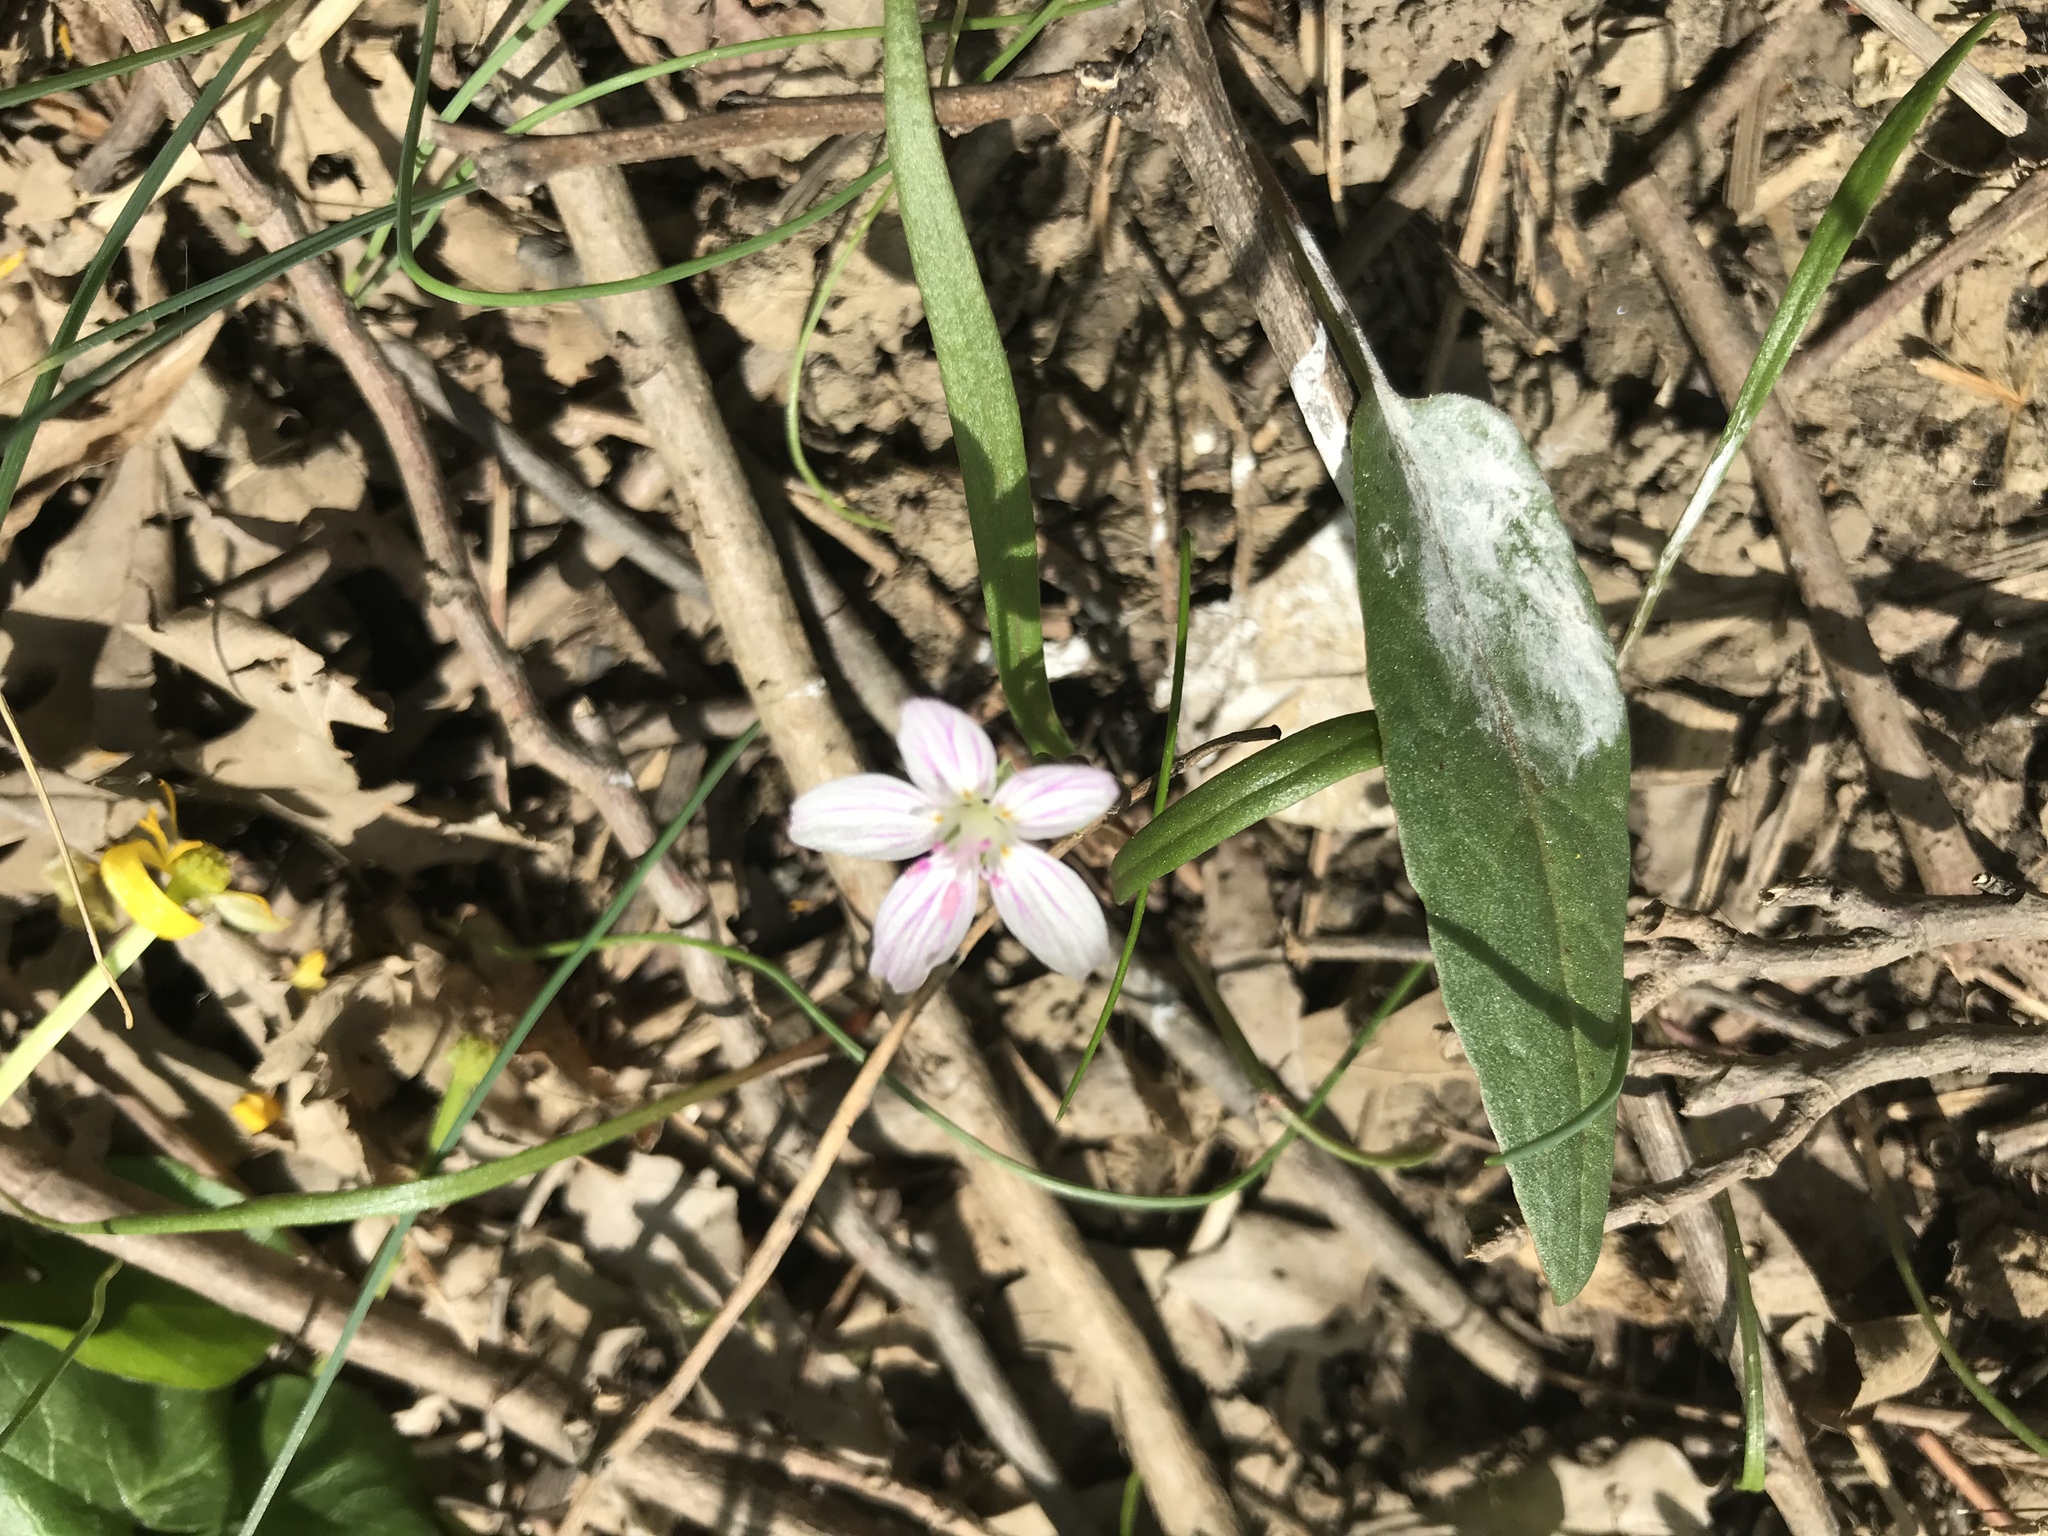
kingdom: Plantae
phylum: Tracheophyta
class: Magnoliopsida
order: Caryophyllales
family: Montiaceae
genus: Claytonia
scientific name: Claytonia virginica
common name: Virginia springbeauty
